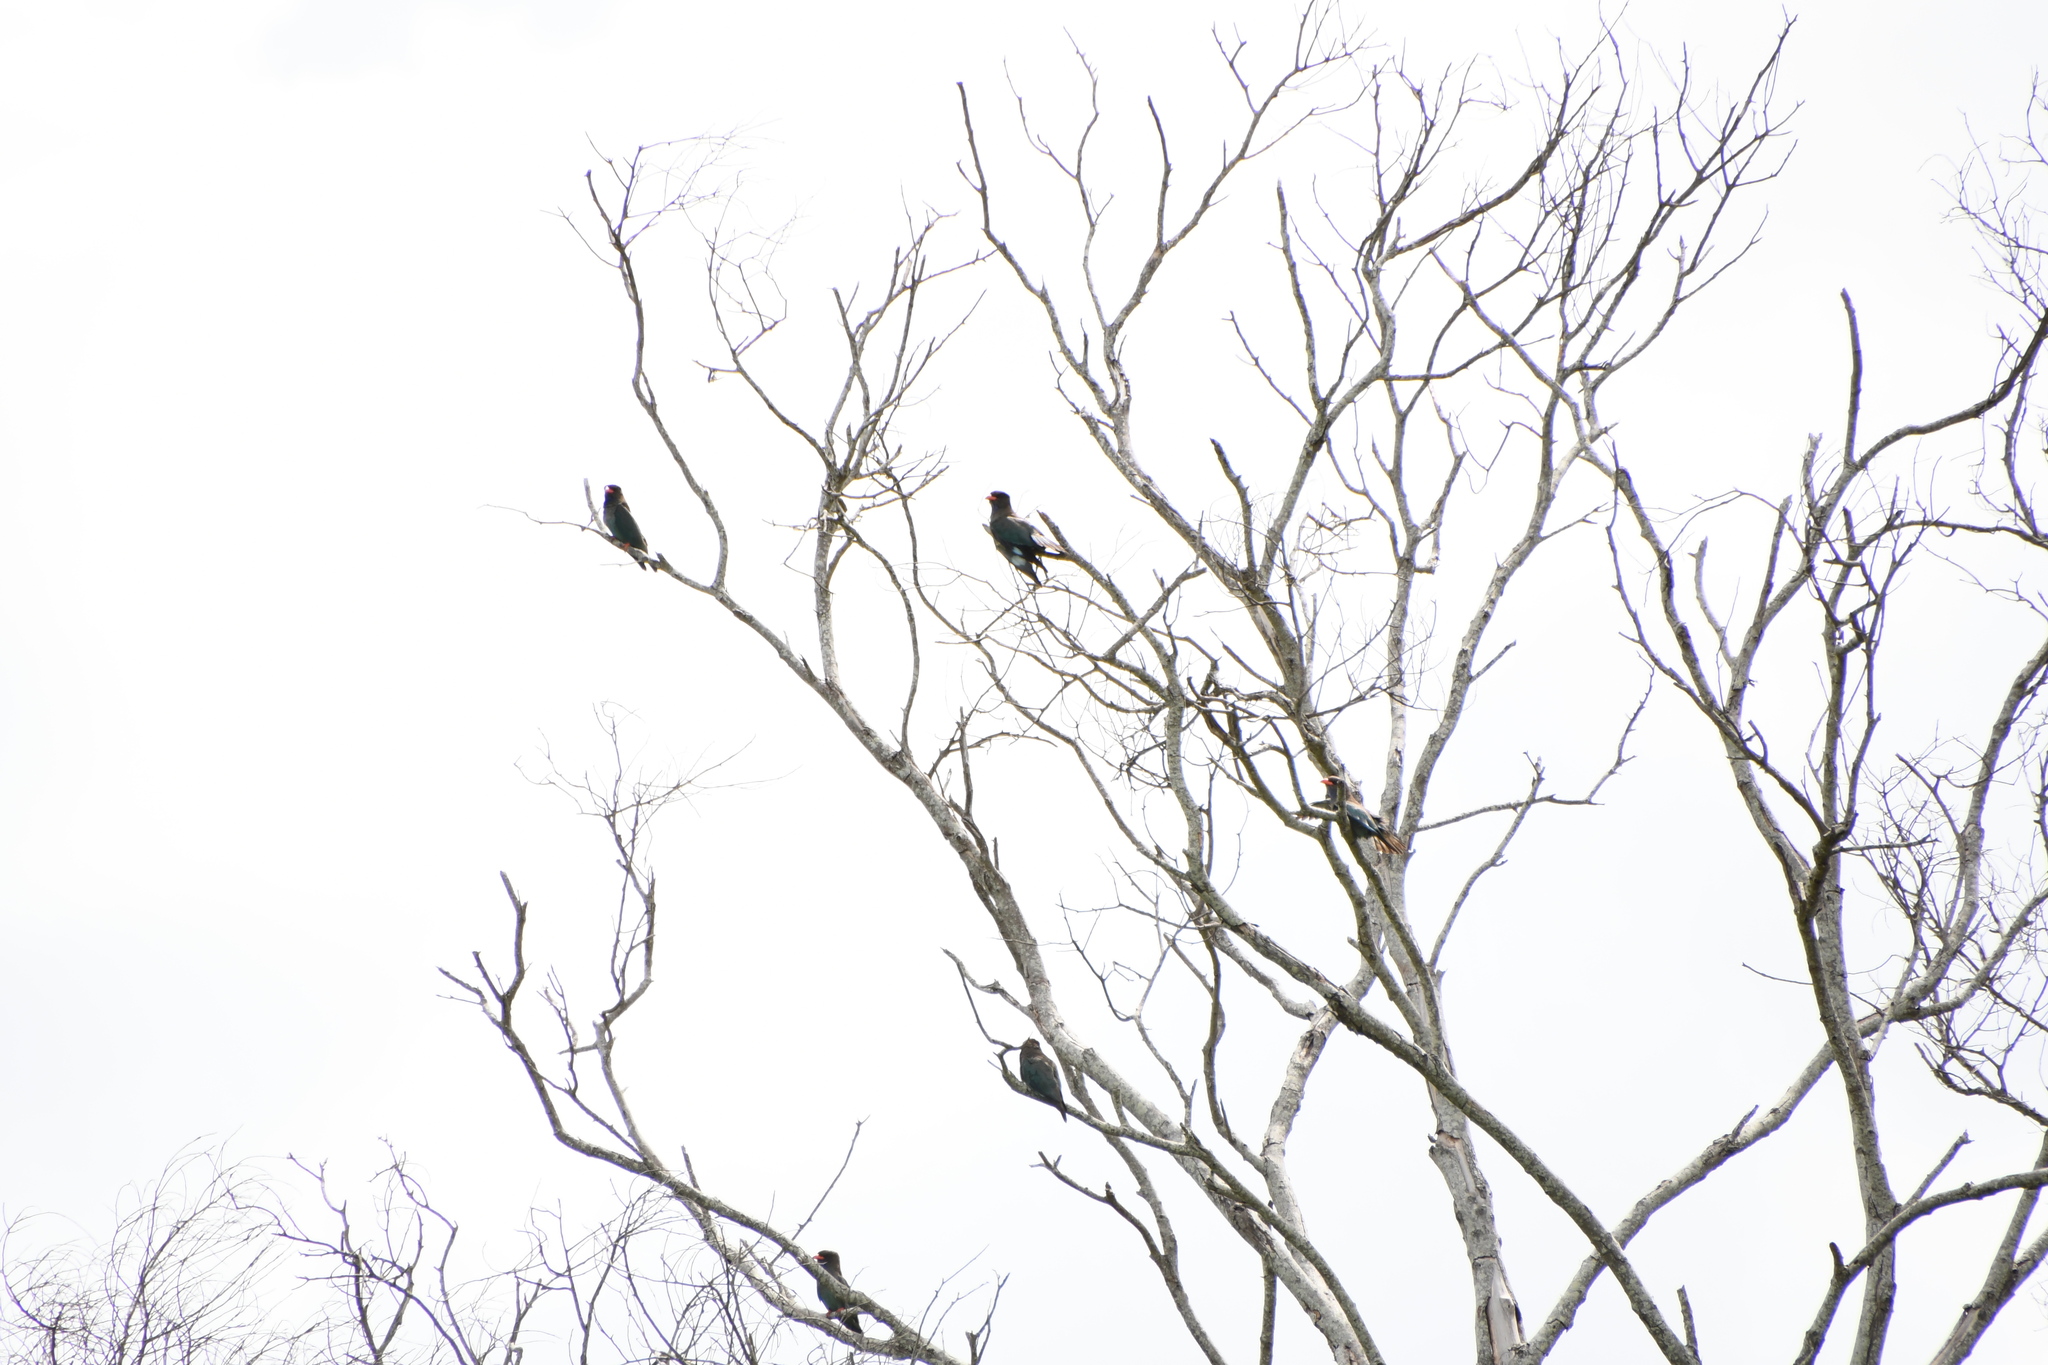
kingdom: Animalia
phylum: Chordata
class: Aves
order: Coraciiformes
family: Coraciidae
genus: Eurystomus
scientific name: Eurystomus orientalis
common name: Oriental dollarbird
